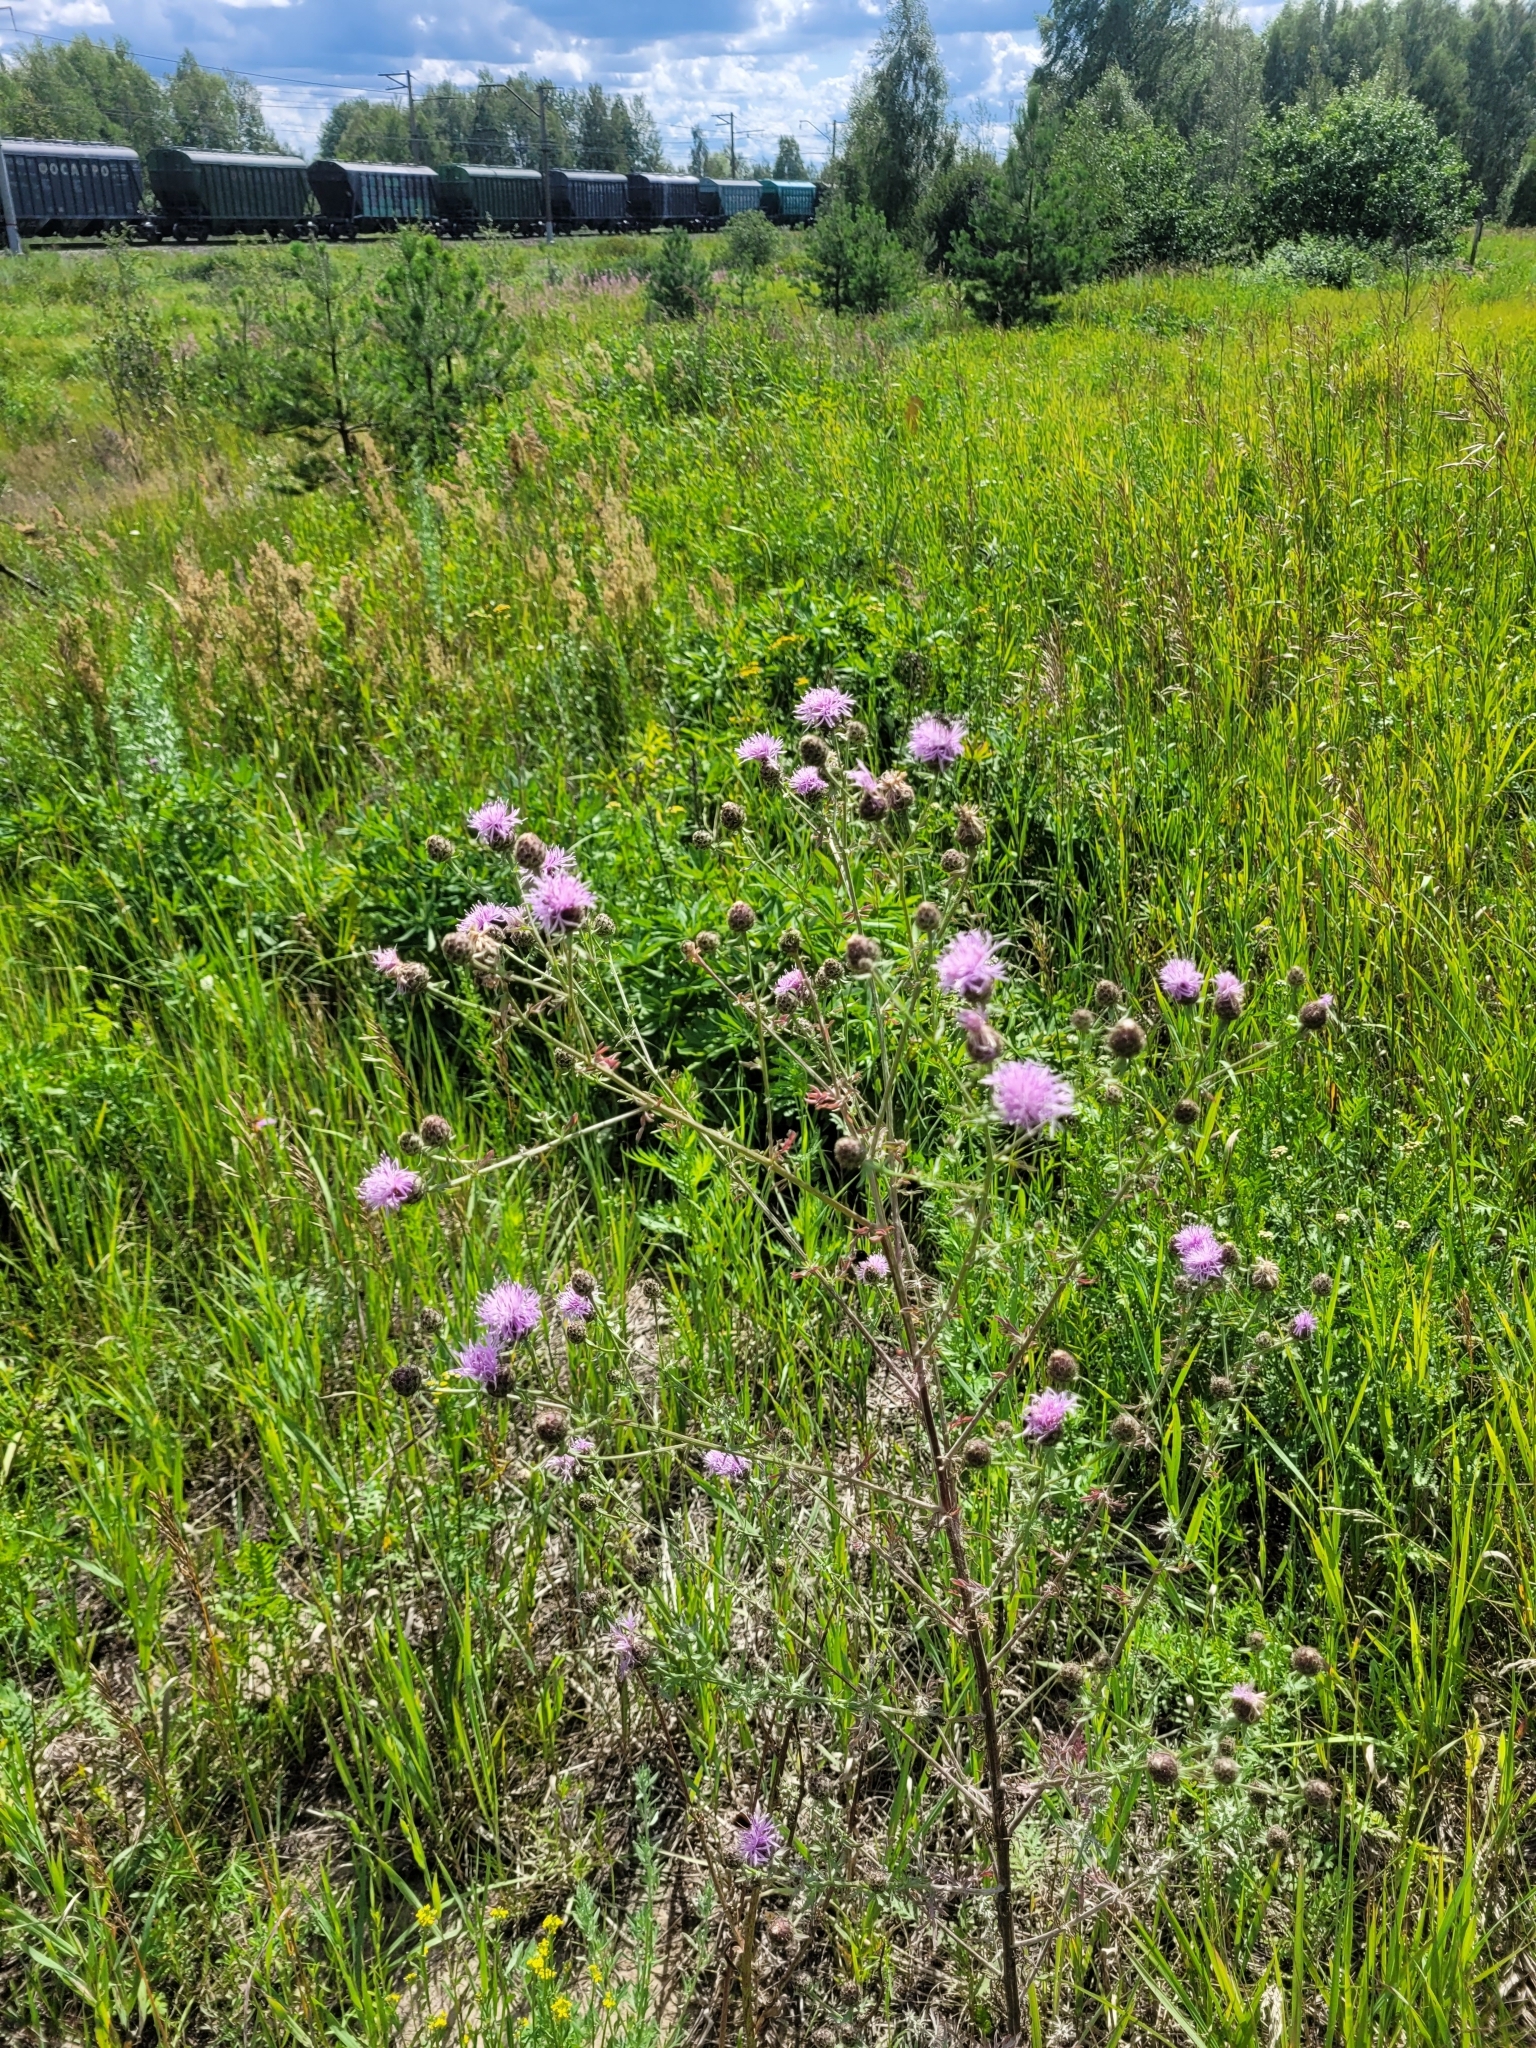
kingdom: Plantae
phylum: Tracheophyta
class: Magnoliopsida
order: Asterales
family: Asteraceae
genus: Centaurea
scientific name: Centaurea stoebe
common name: Spotted knapweed
